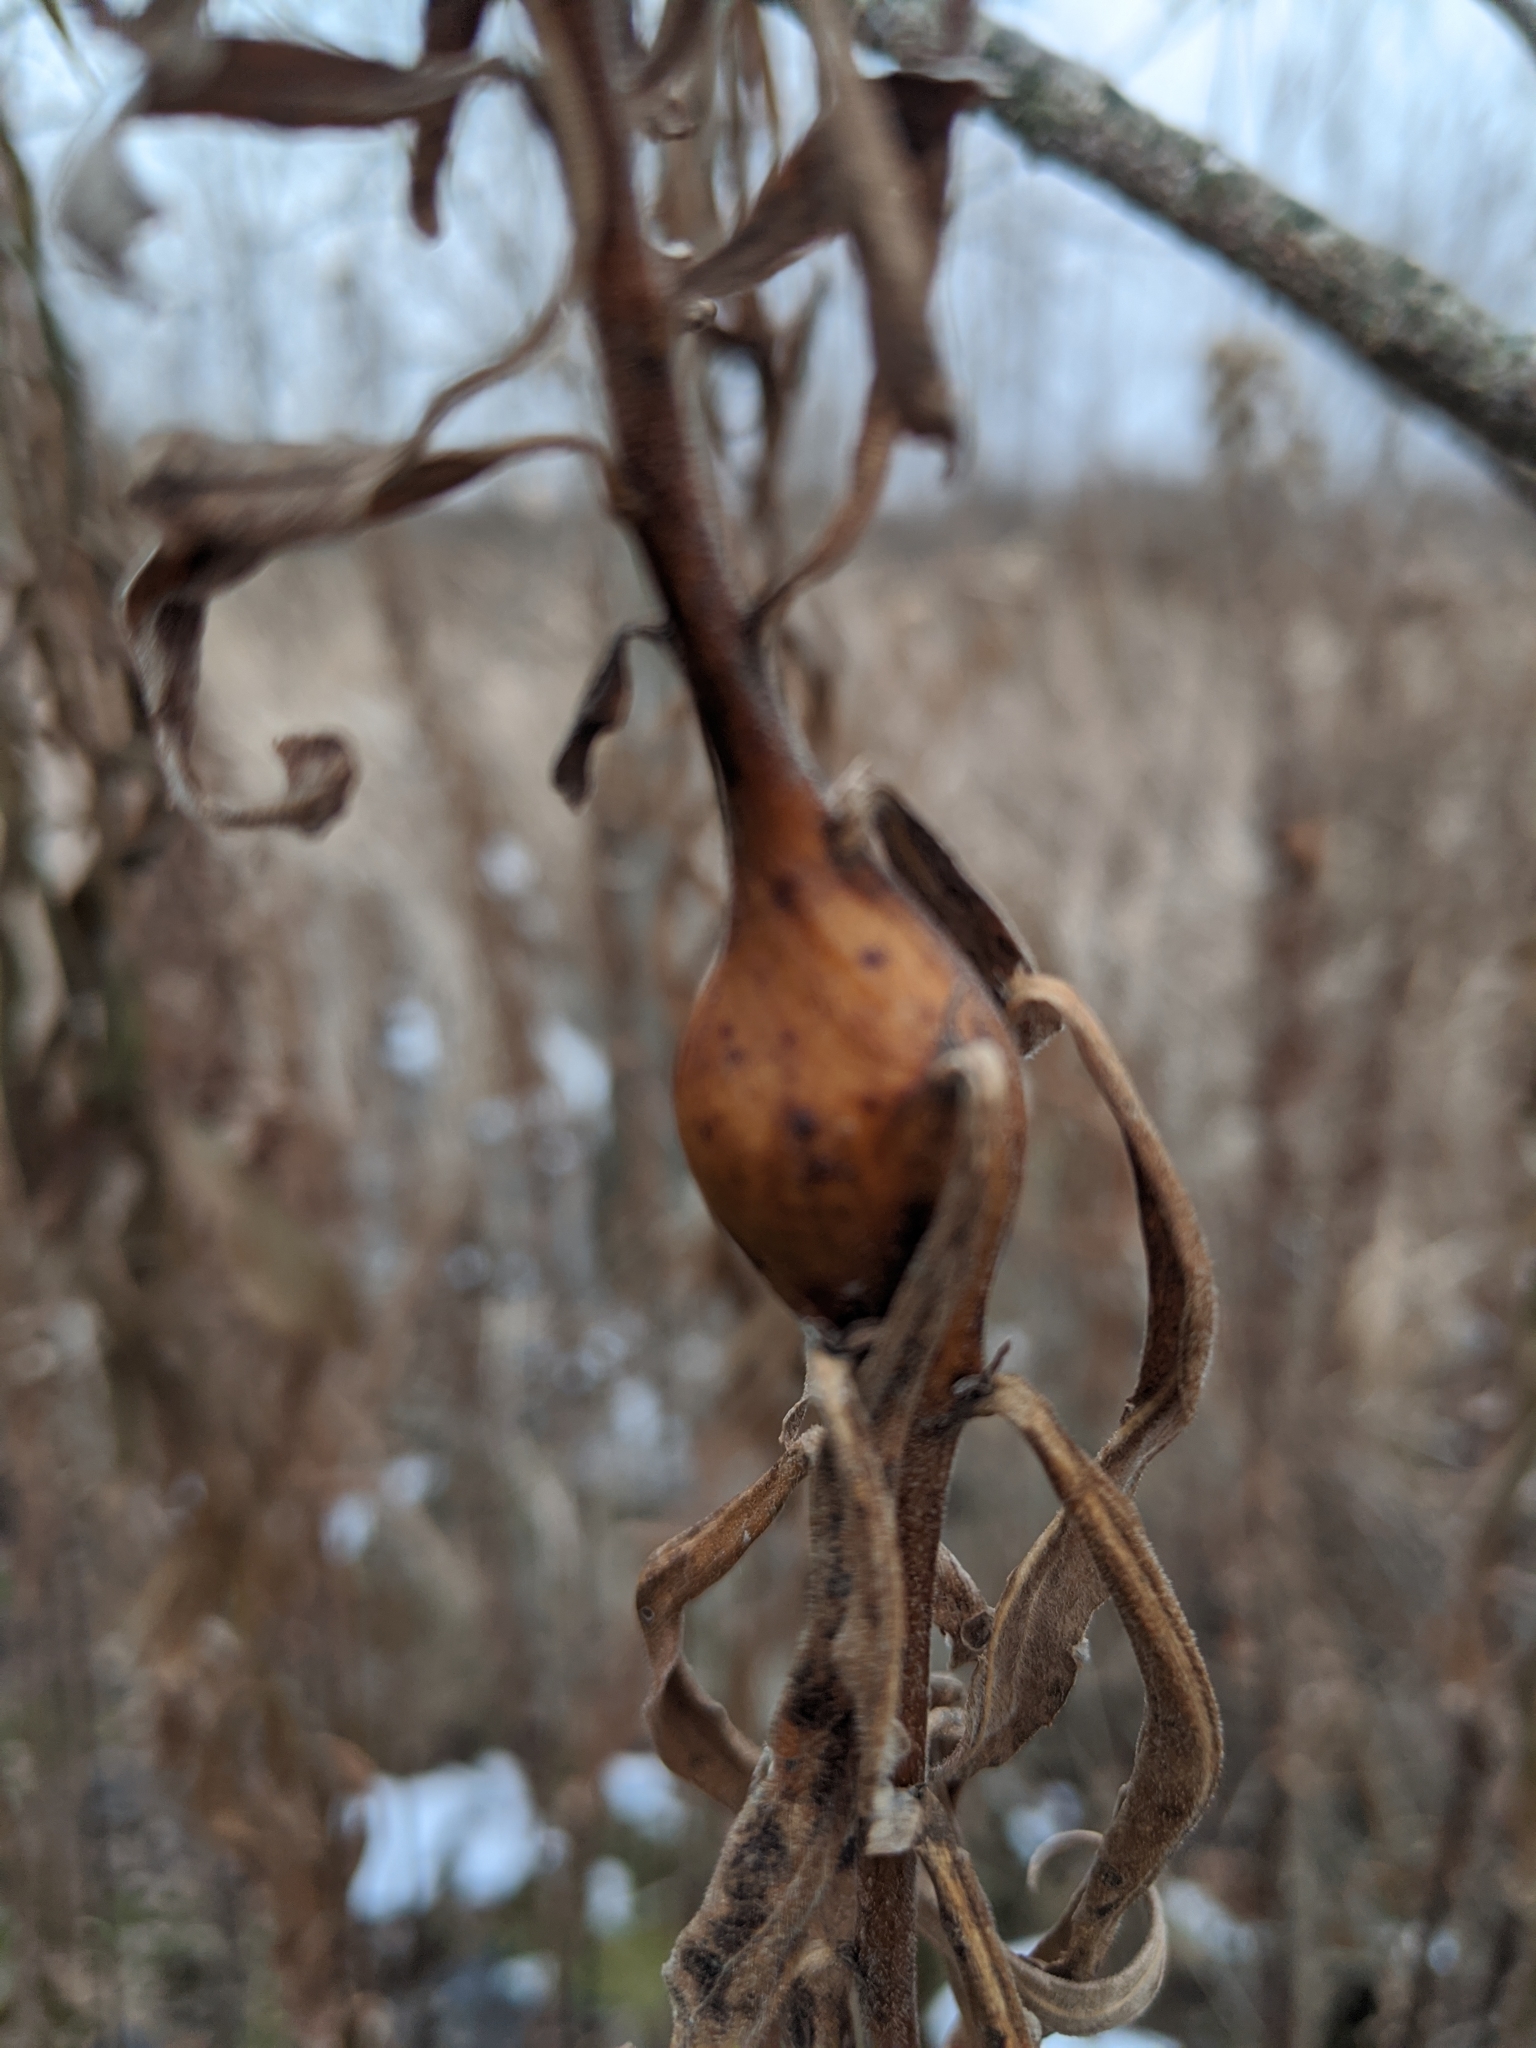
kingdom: Animalia
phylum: Arthropoda
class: Insecta
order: Diptera
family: Tephritidae
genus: Eurosta
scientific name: Eurosta solidaginis
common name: Goldenrod gall fly
